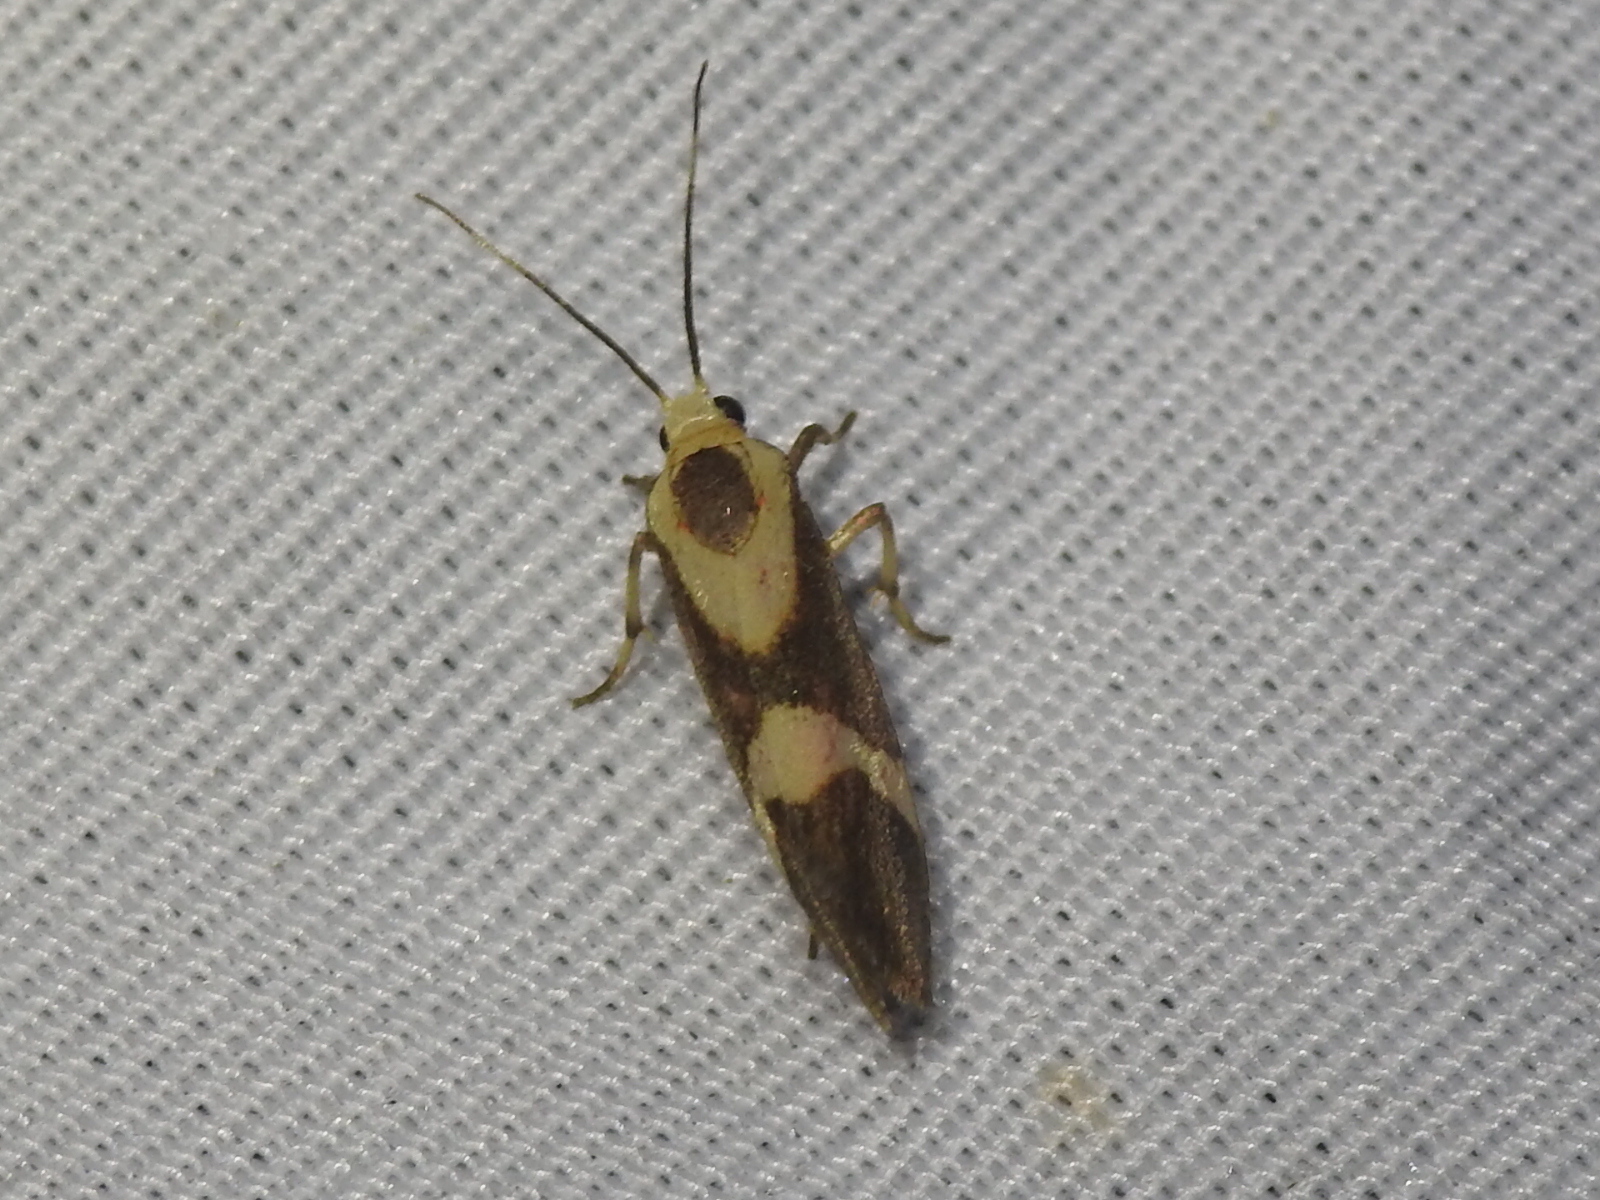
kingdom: Animalia
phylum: Arthropoda
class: Insecta
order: Lepidoptera
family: Erebidae
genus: Cisthene
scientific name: Cisthene subrufa
